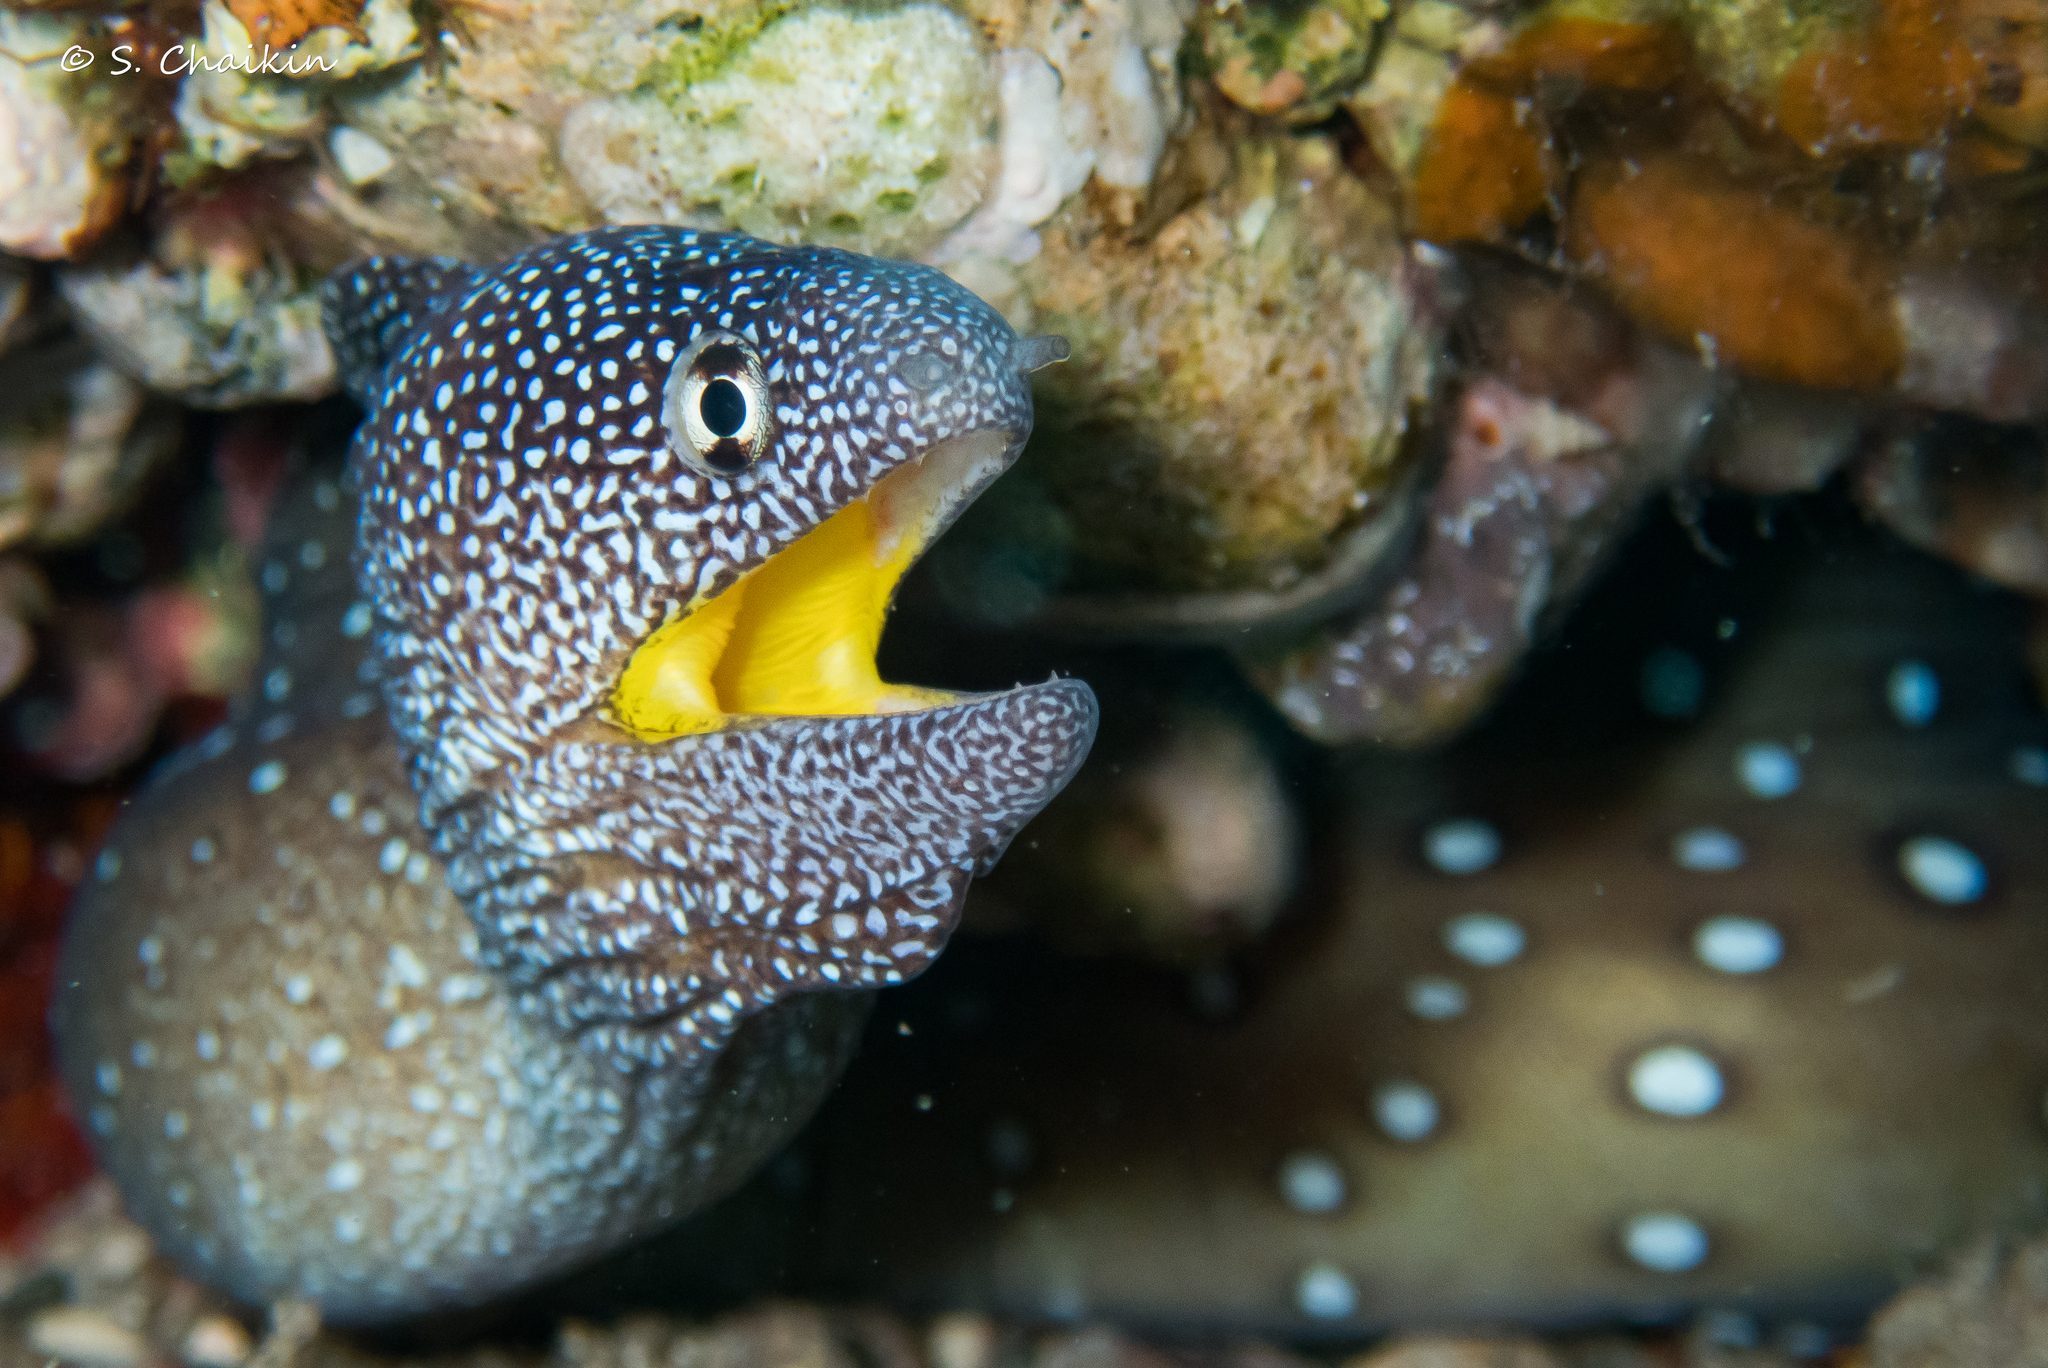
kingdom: Animalia
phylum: Chordata
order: Anguilliformes
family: Muraenidae
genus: Gymnothorax
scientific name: Gymnothorax nudivomer
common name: Yellowmouth moray
